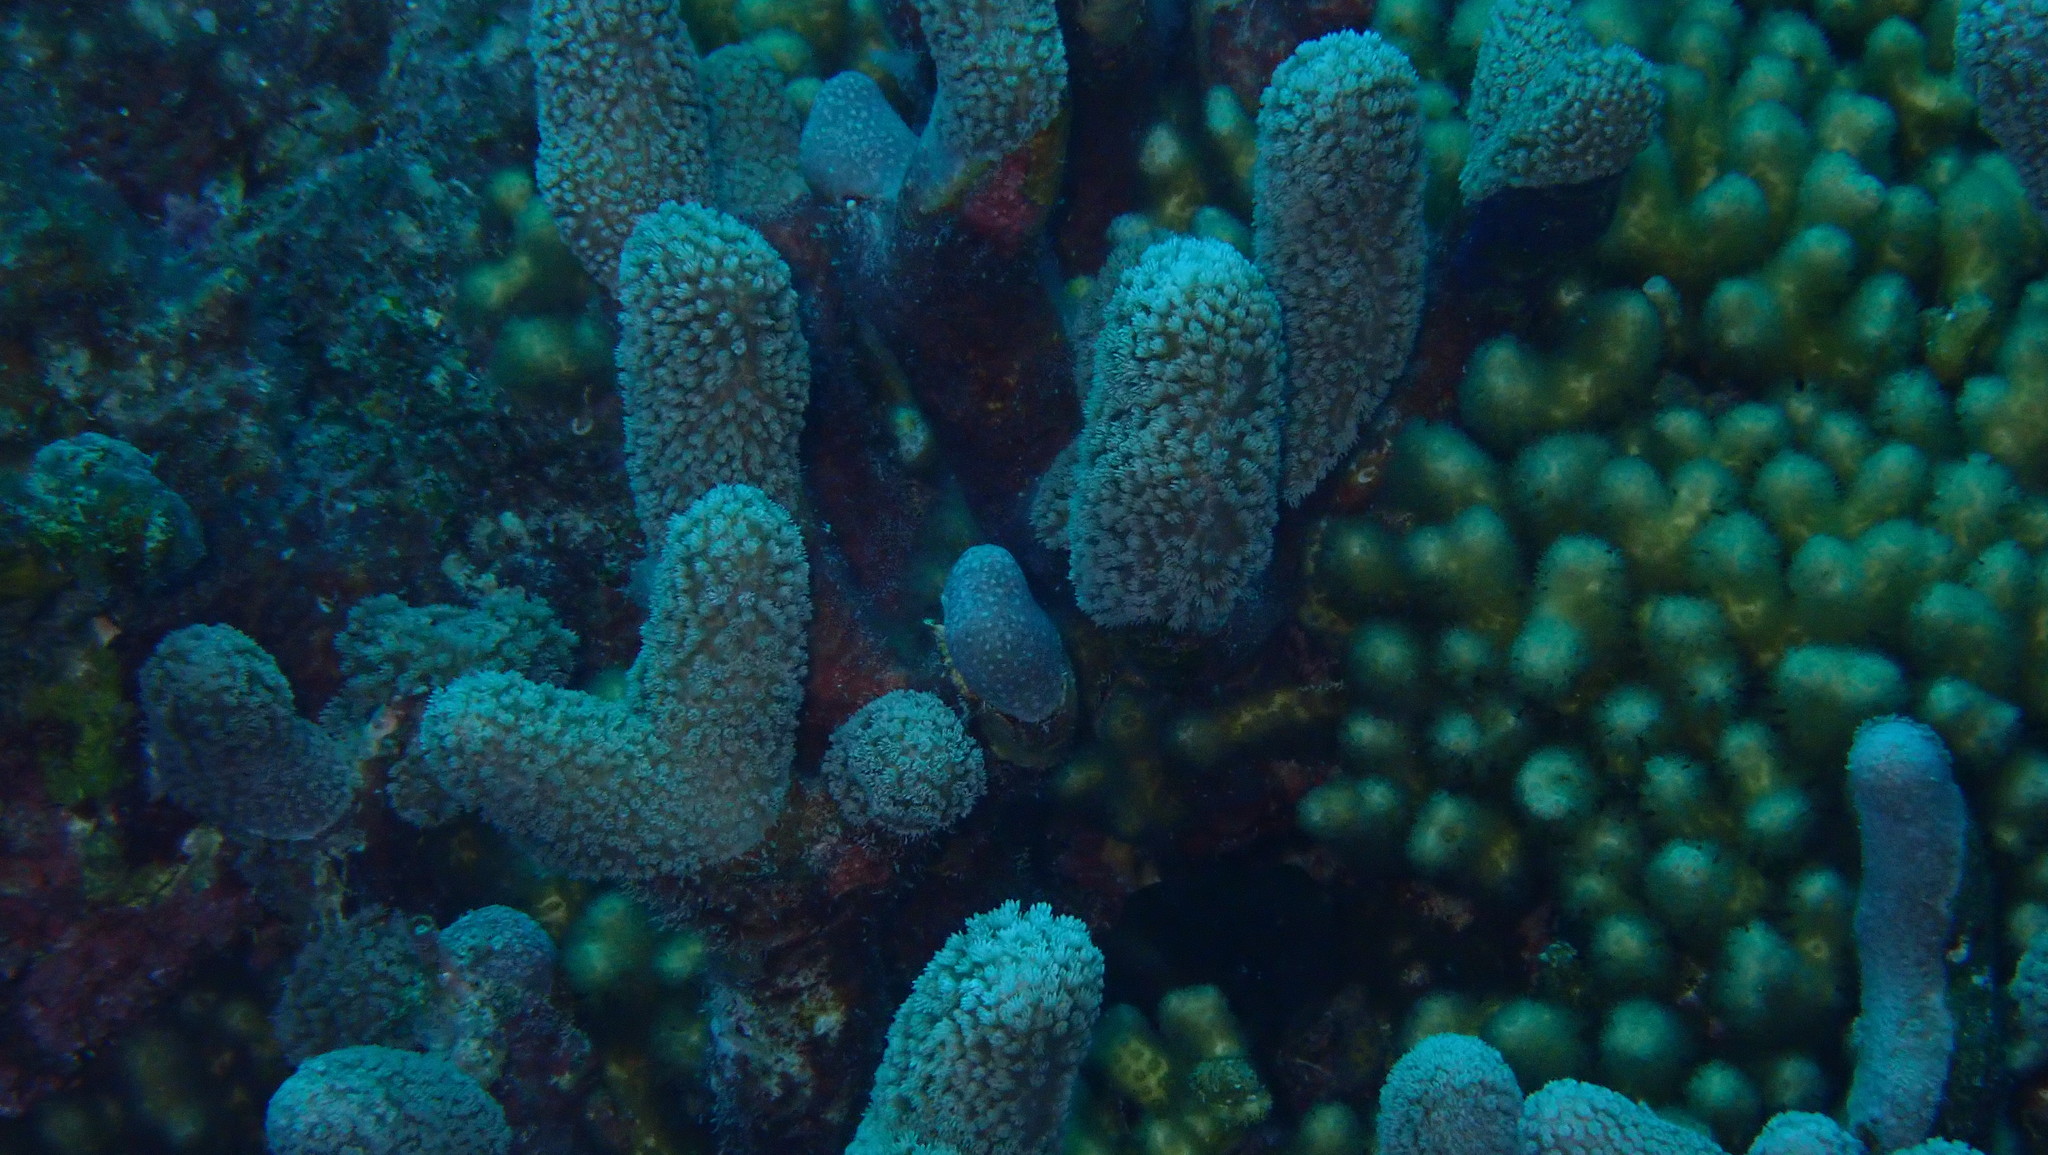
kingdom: Animalia
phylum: Cnidaria
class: Anthozoa
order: Scleractinia
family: Poritidae
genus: Porites
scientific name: Porites porites
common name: Finger coral
